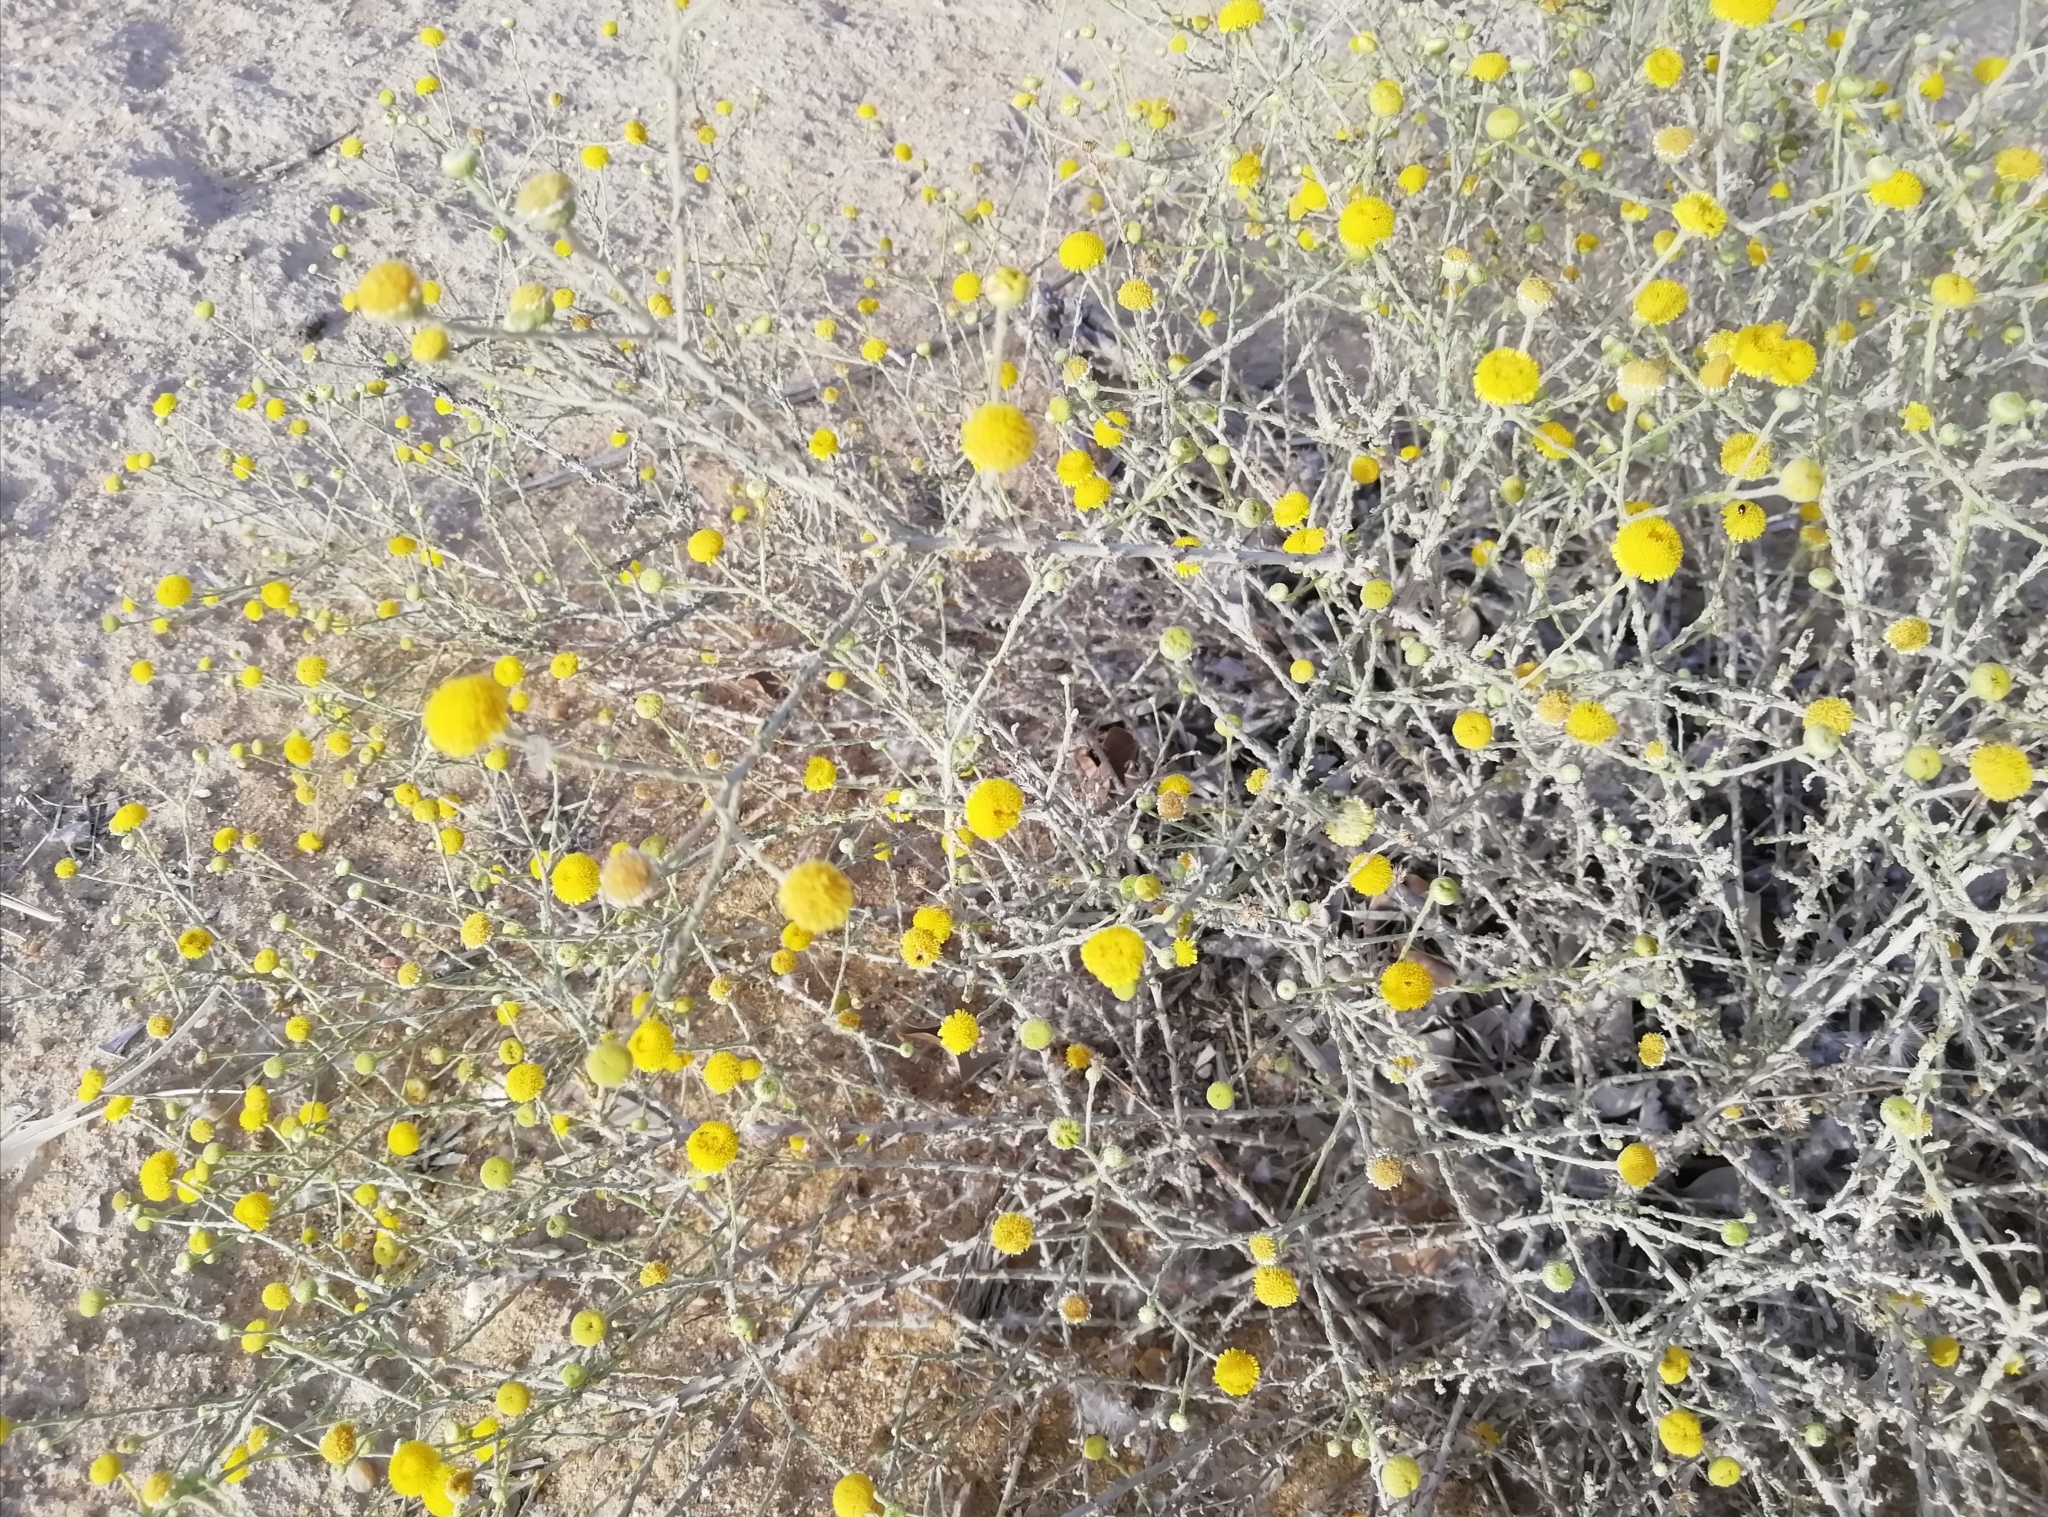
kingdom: Plantae
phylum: Tracheophyta
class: Magnoliopsida
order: Asterales
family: Asteraceae
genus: Pulicaria
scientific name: Pulicaria undulata
